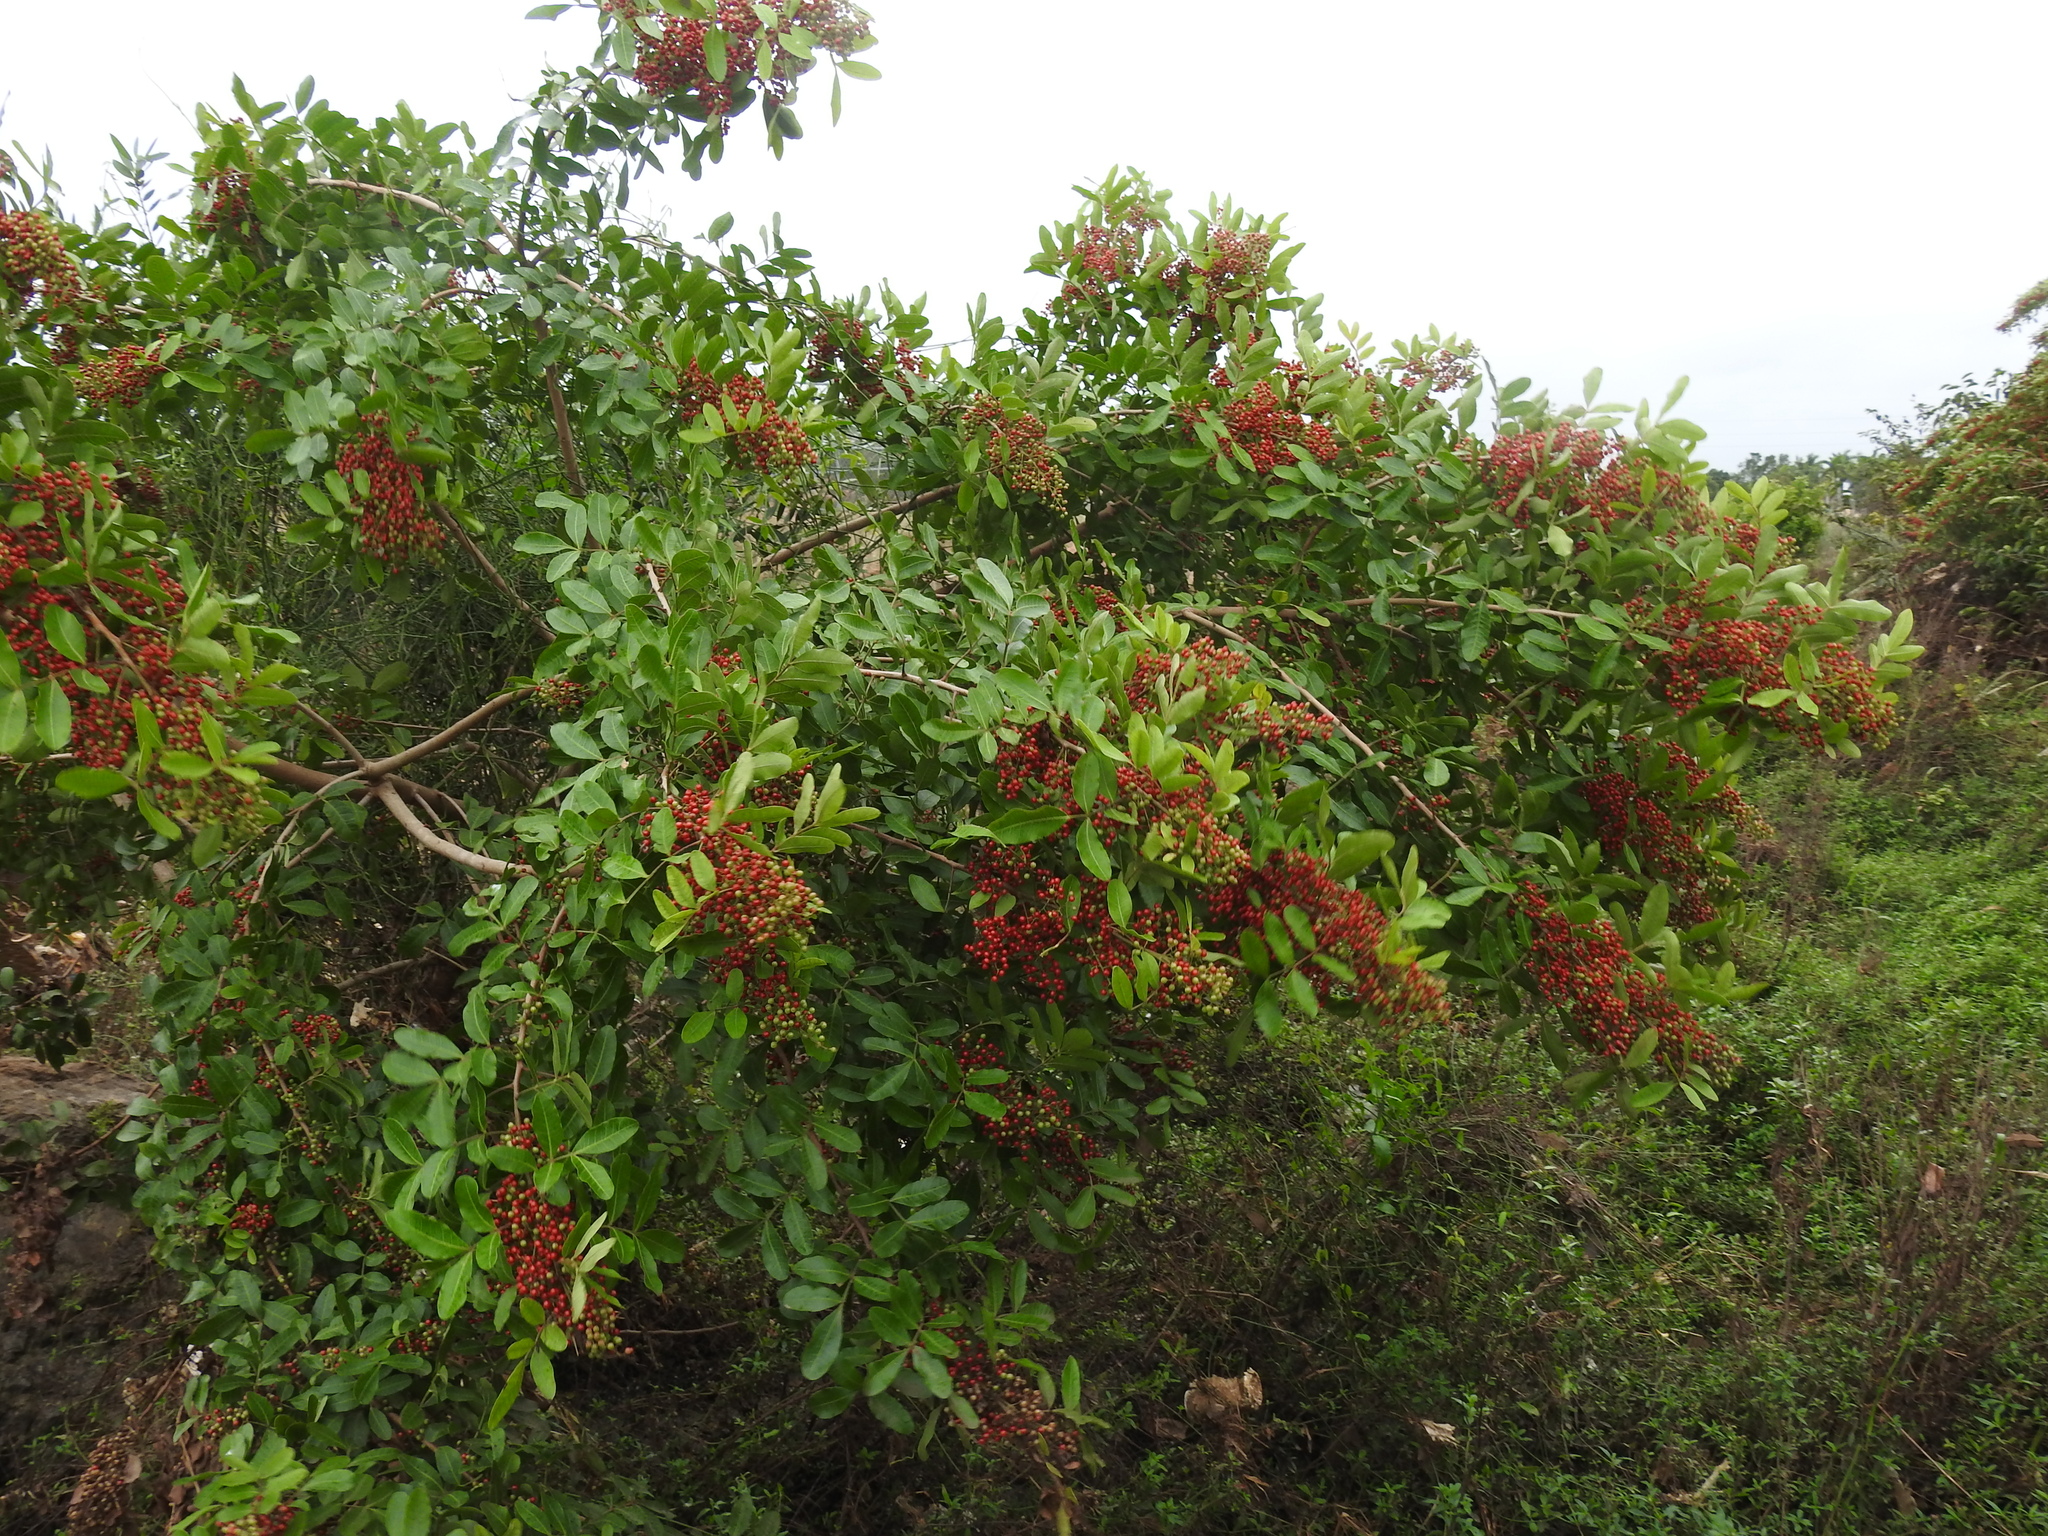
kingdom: Plantae
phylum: Tracheophyta
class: Magnoliopsida
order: Sapindales
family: Anacardiaceae
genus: Schinus
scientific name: Schinus terebinthifolia
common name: Brazilian peppertree
